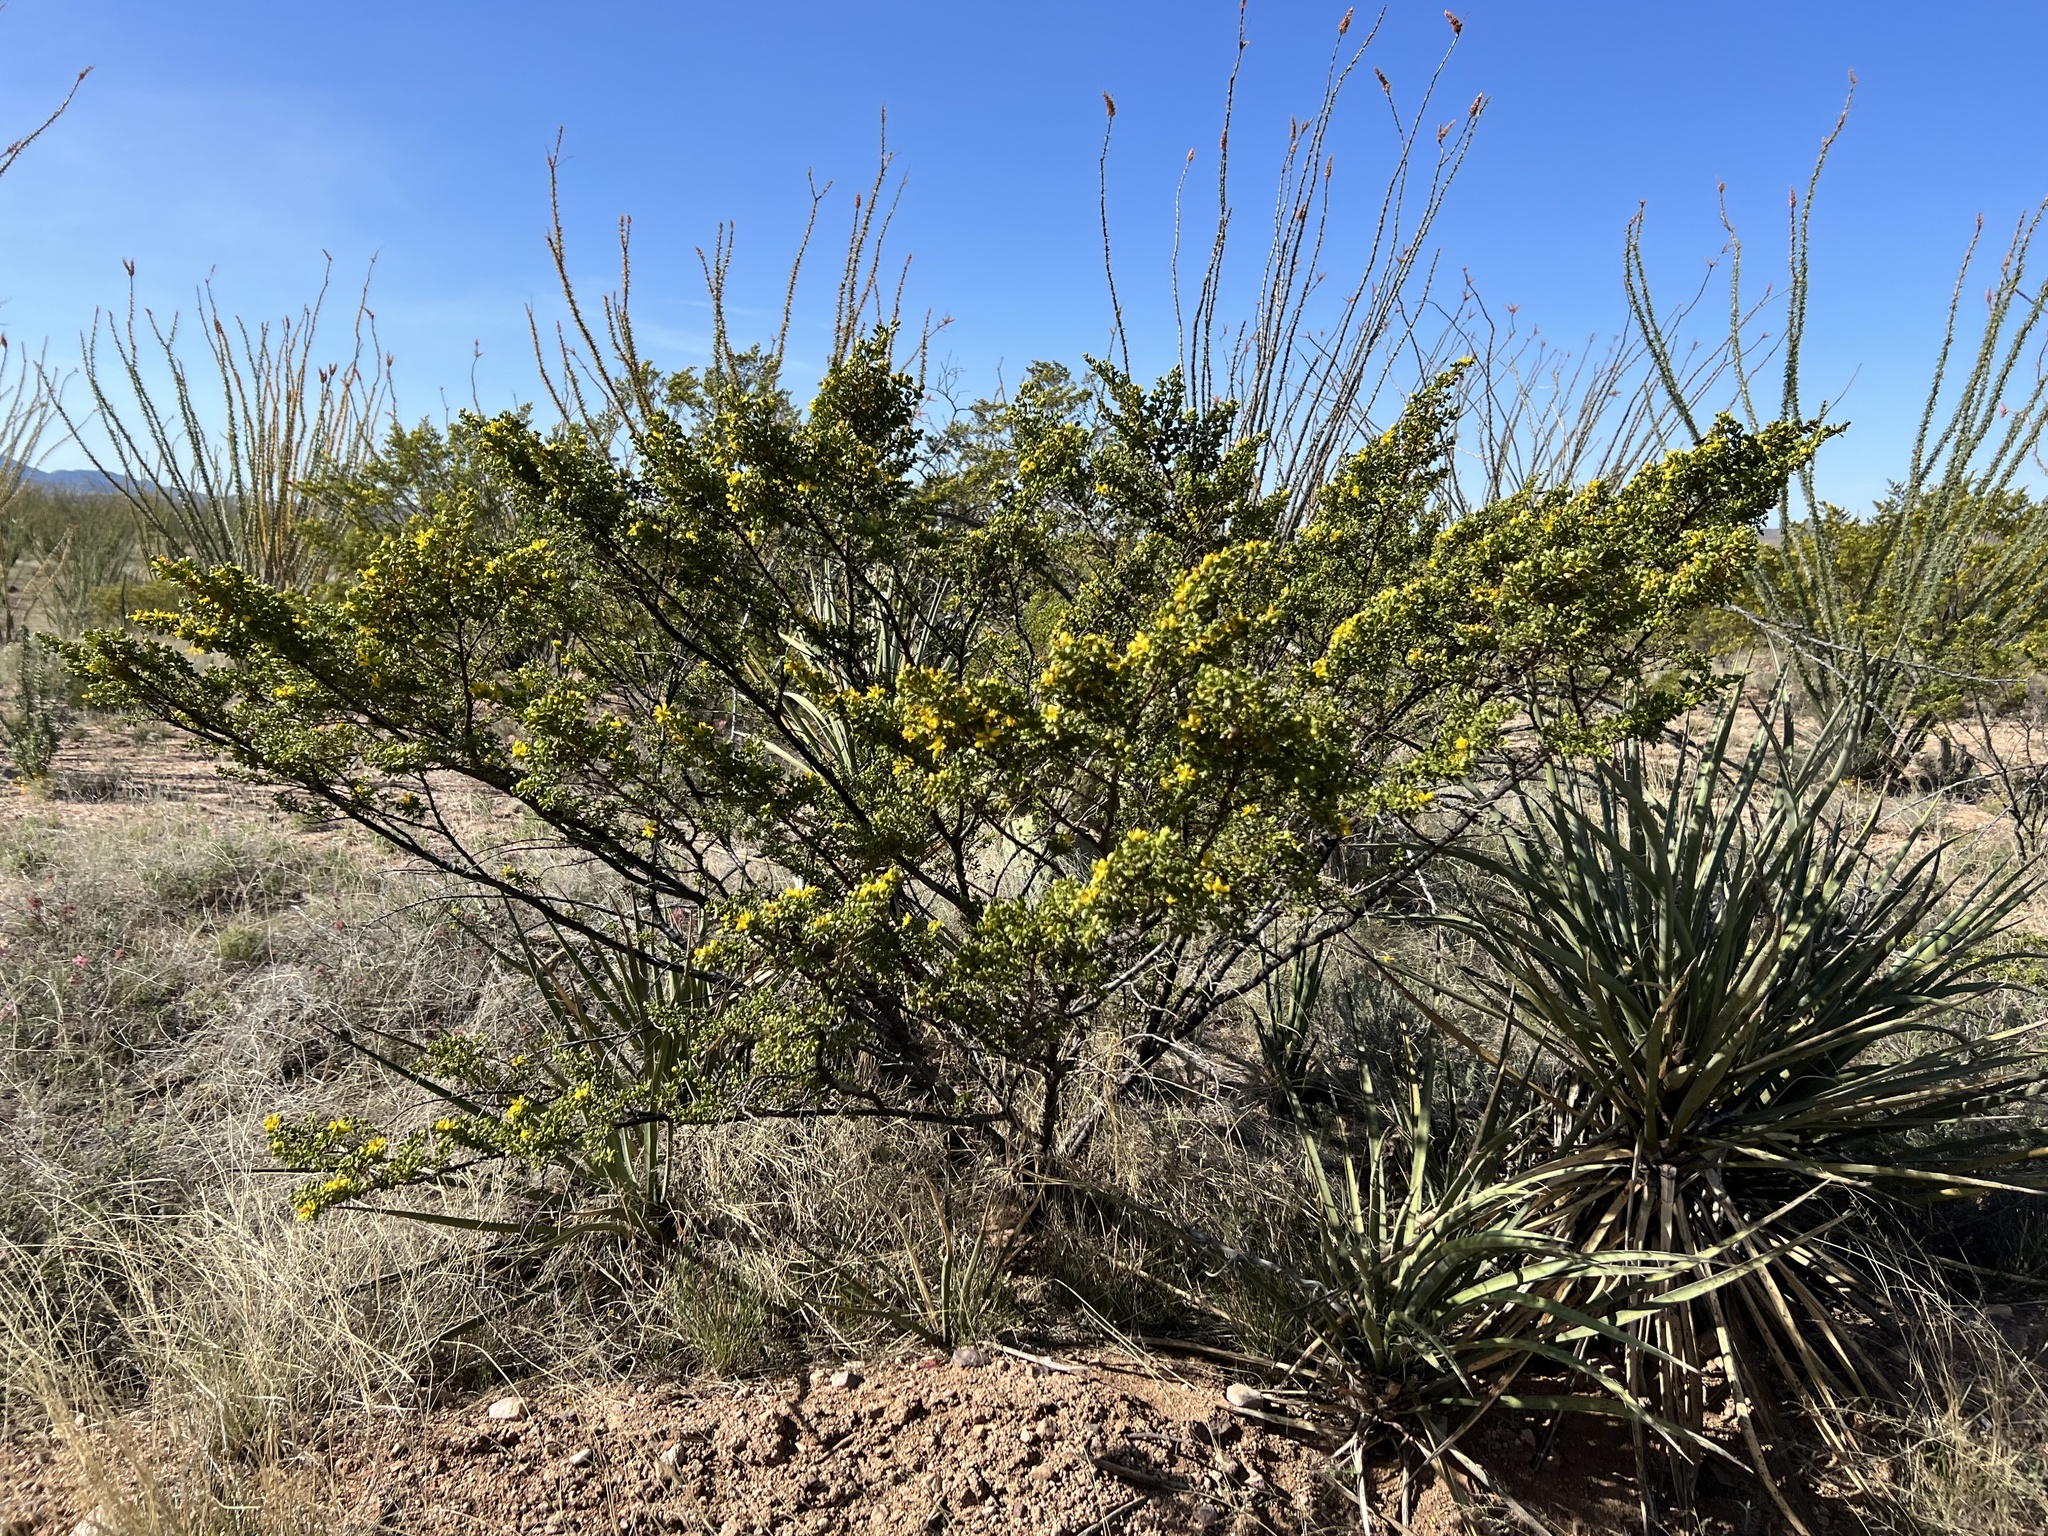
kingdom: Plantae
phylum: Tracheophyta
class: Magnoliopsida
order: Zygophyllales
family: Zygophyllaceae
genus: Larrea
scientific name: Larrea tridentata
